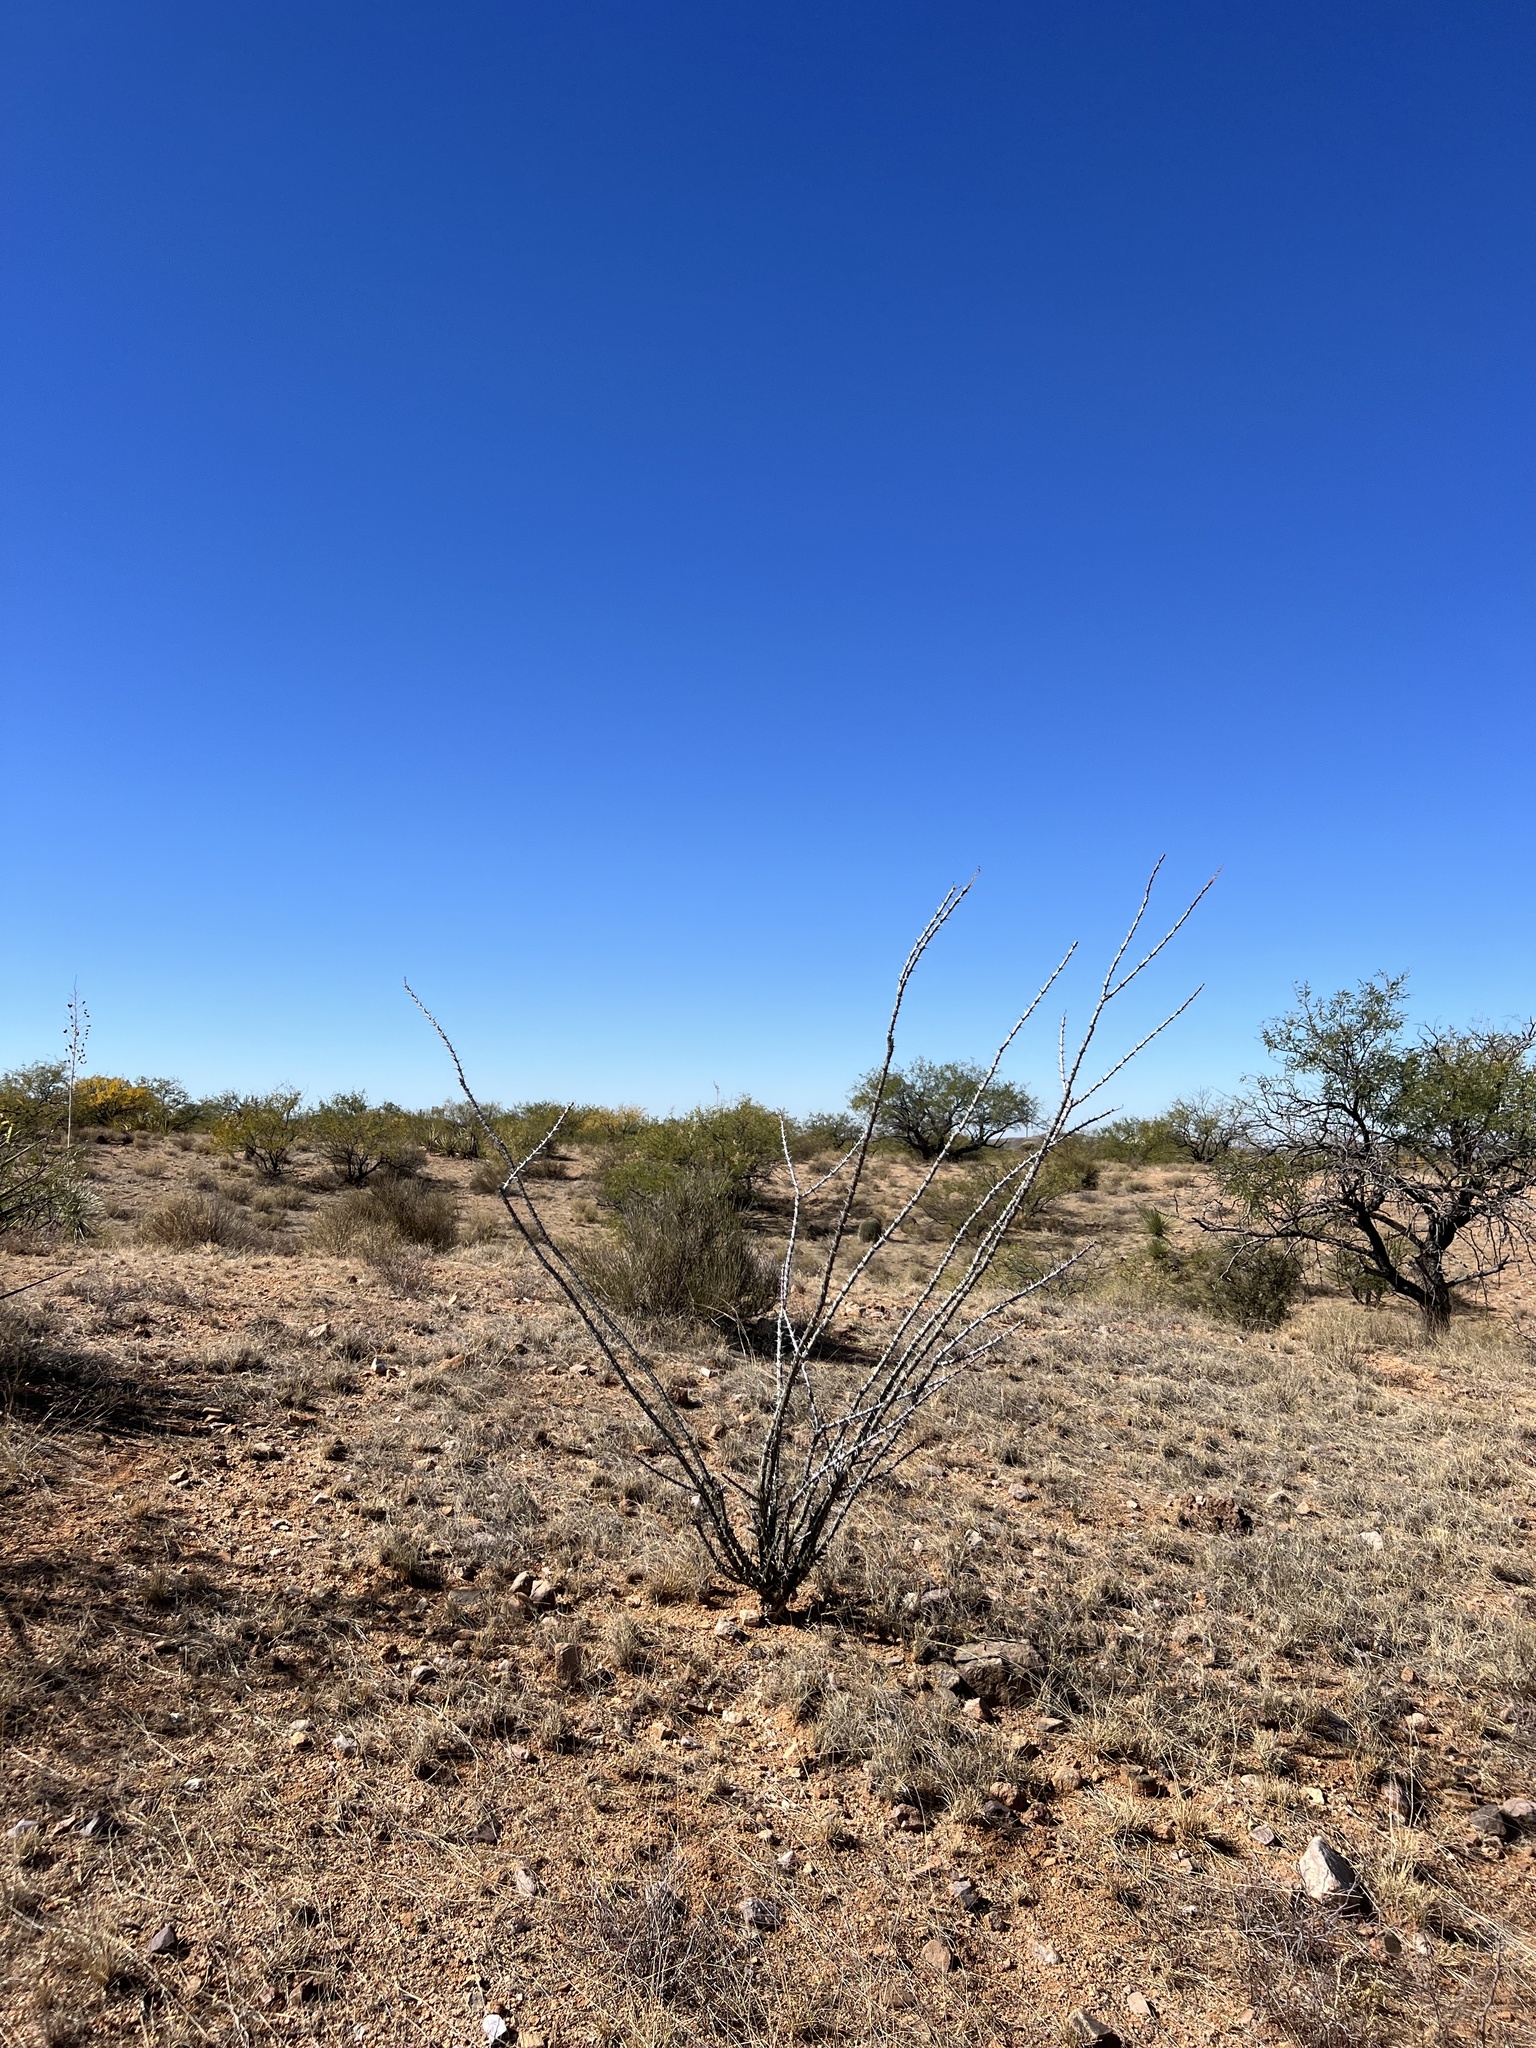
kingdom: Plantae
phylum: Tracheophyta
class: Magnoliopsida
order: Ericales
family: Fouquieriaceae
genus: Fouquieria
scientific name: Fouquieria splendens
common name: Vine-cactus
